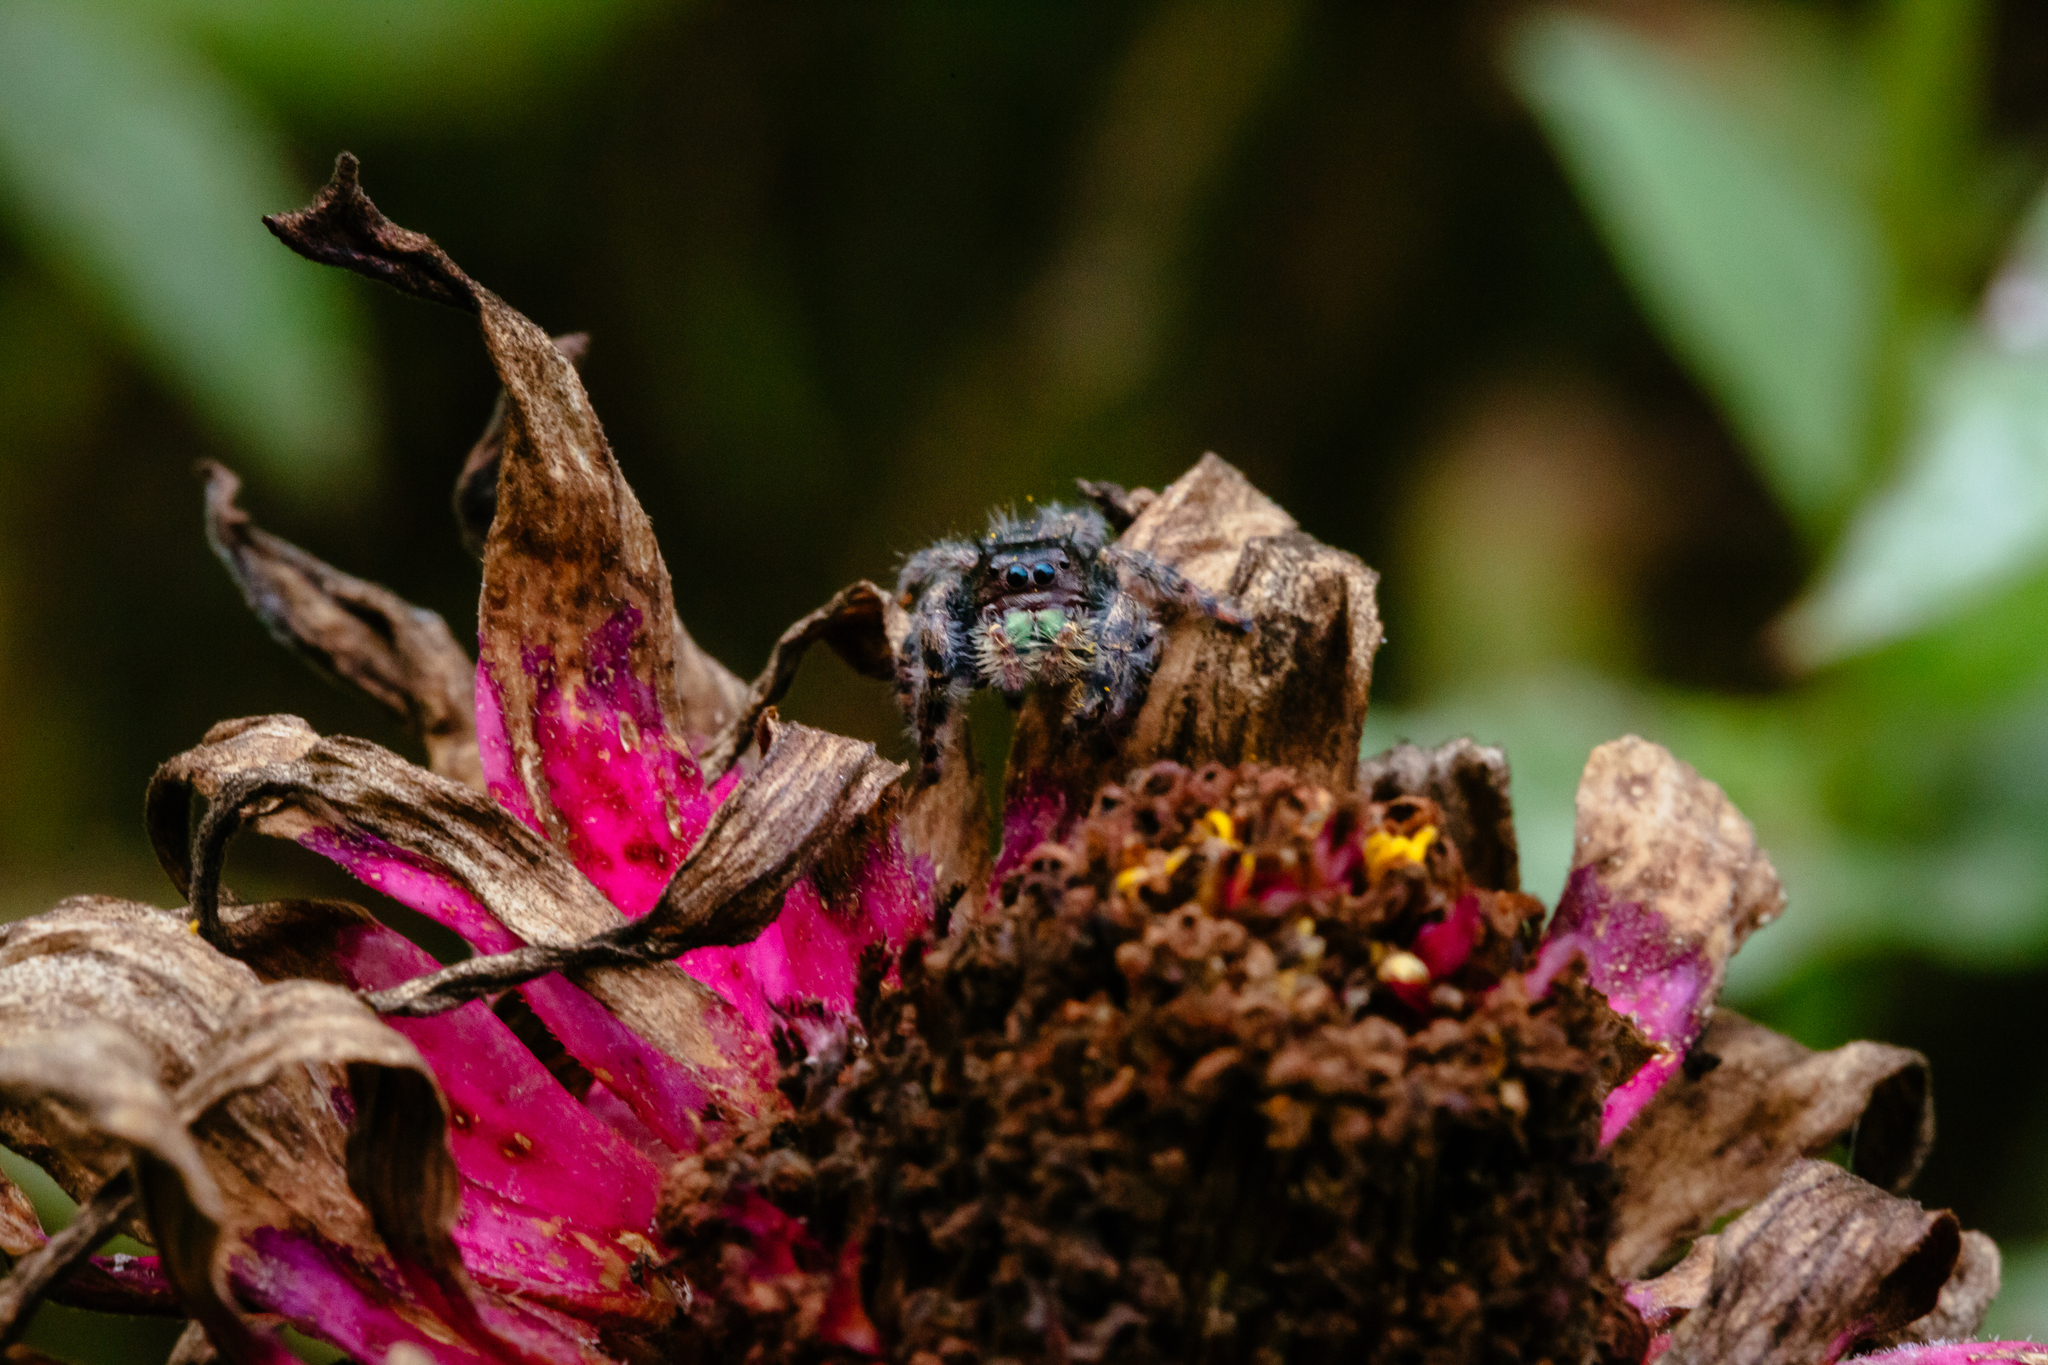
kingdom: Animalia
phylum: Arthropoda
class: Arachnida
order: Araneae
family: Salticidae
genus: Phidippus
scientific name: Phidippus audax
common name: Bold jumper
